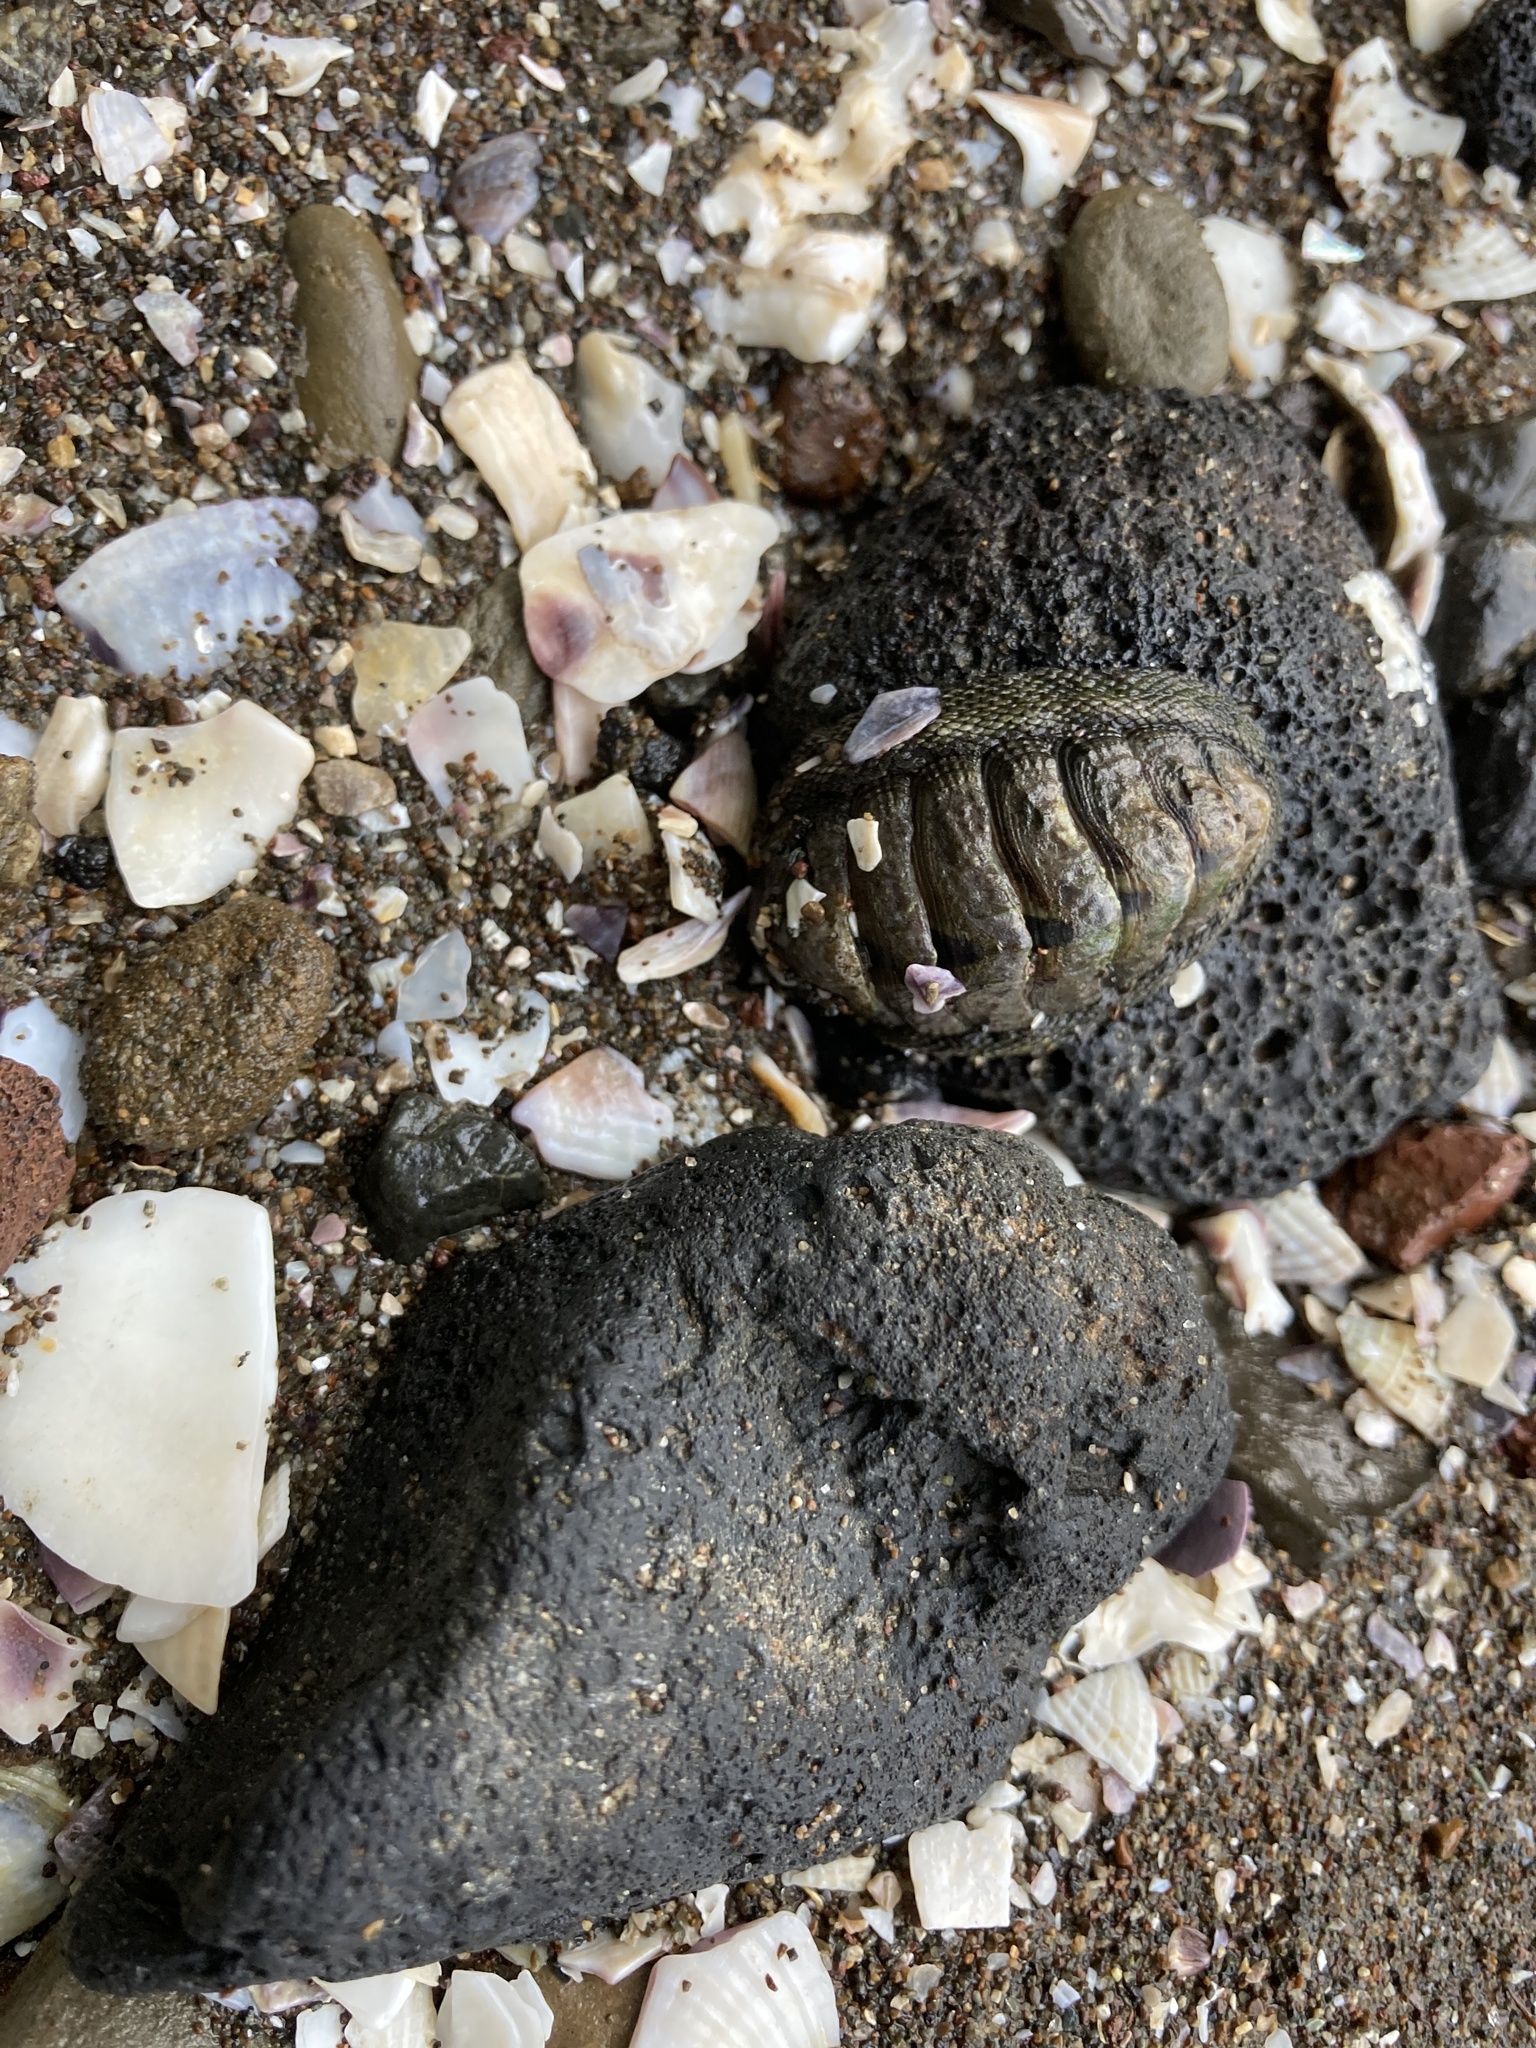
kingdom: Animalia
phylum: Mollusca
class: Polyplacophora
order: Chitonida
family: Chitonidae
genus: Sypharochiton
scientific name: Sypharochiton pelliserpentis
